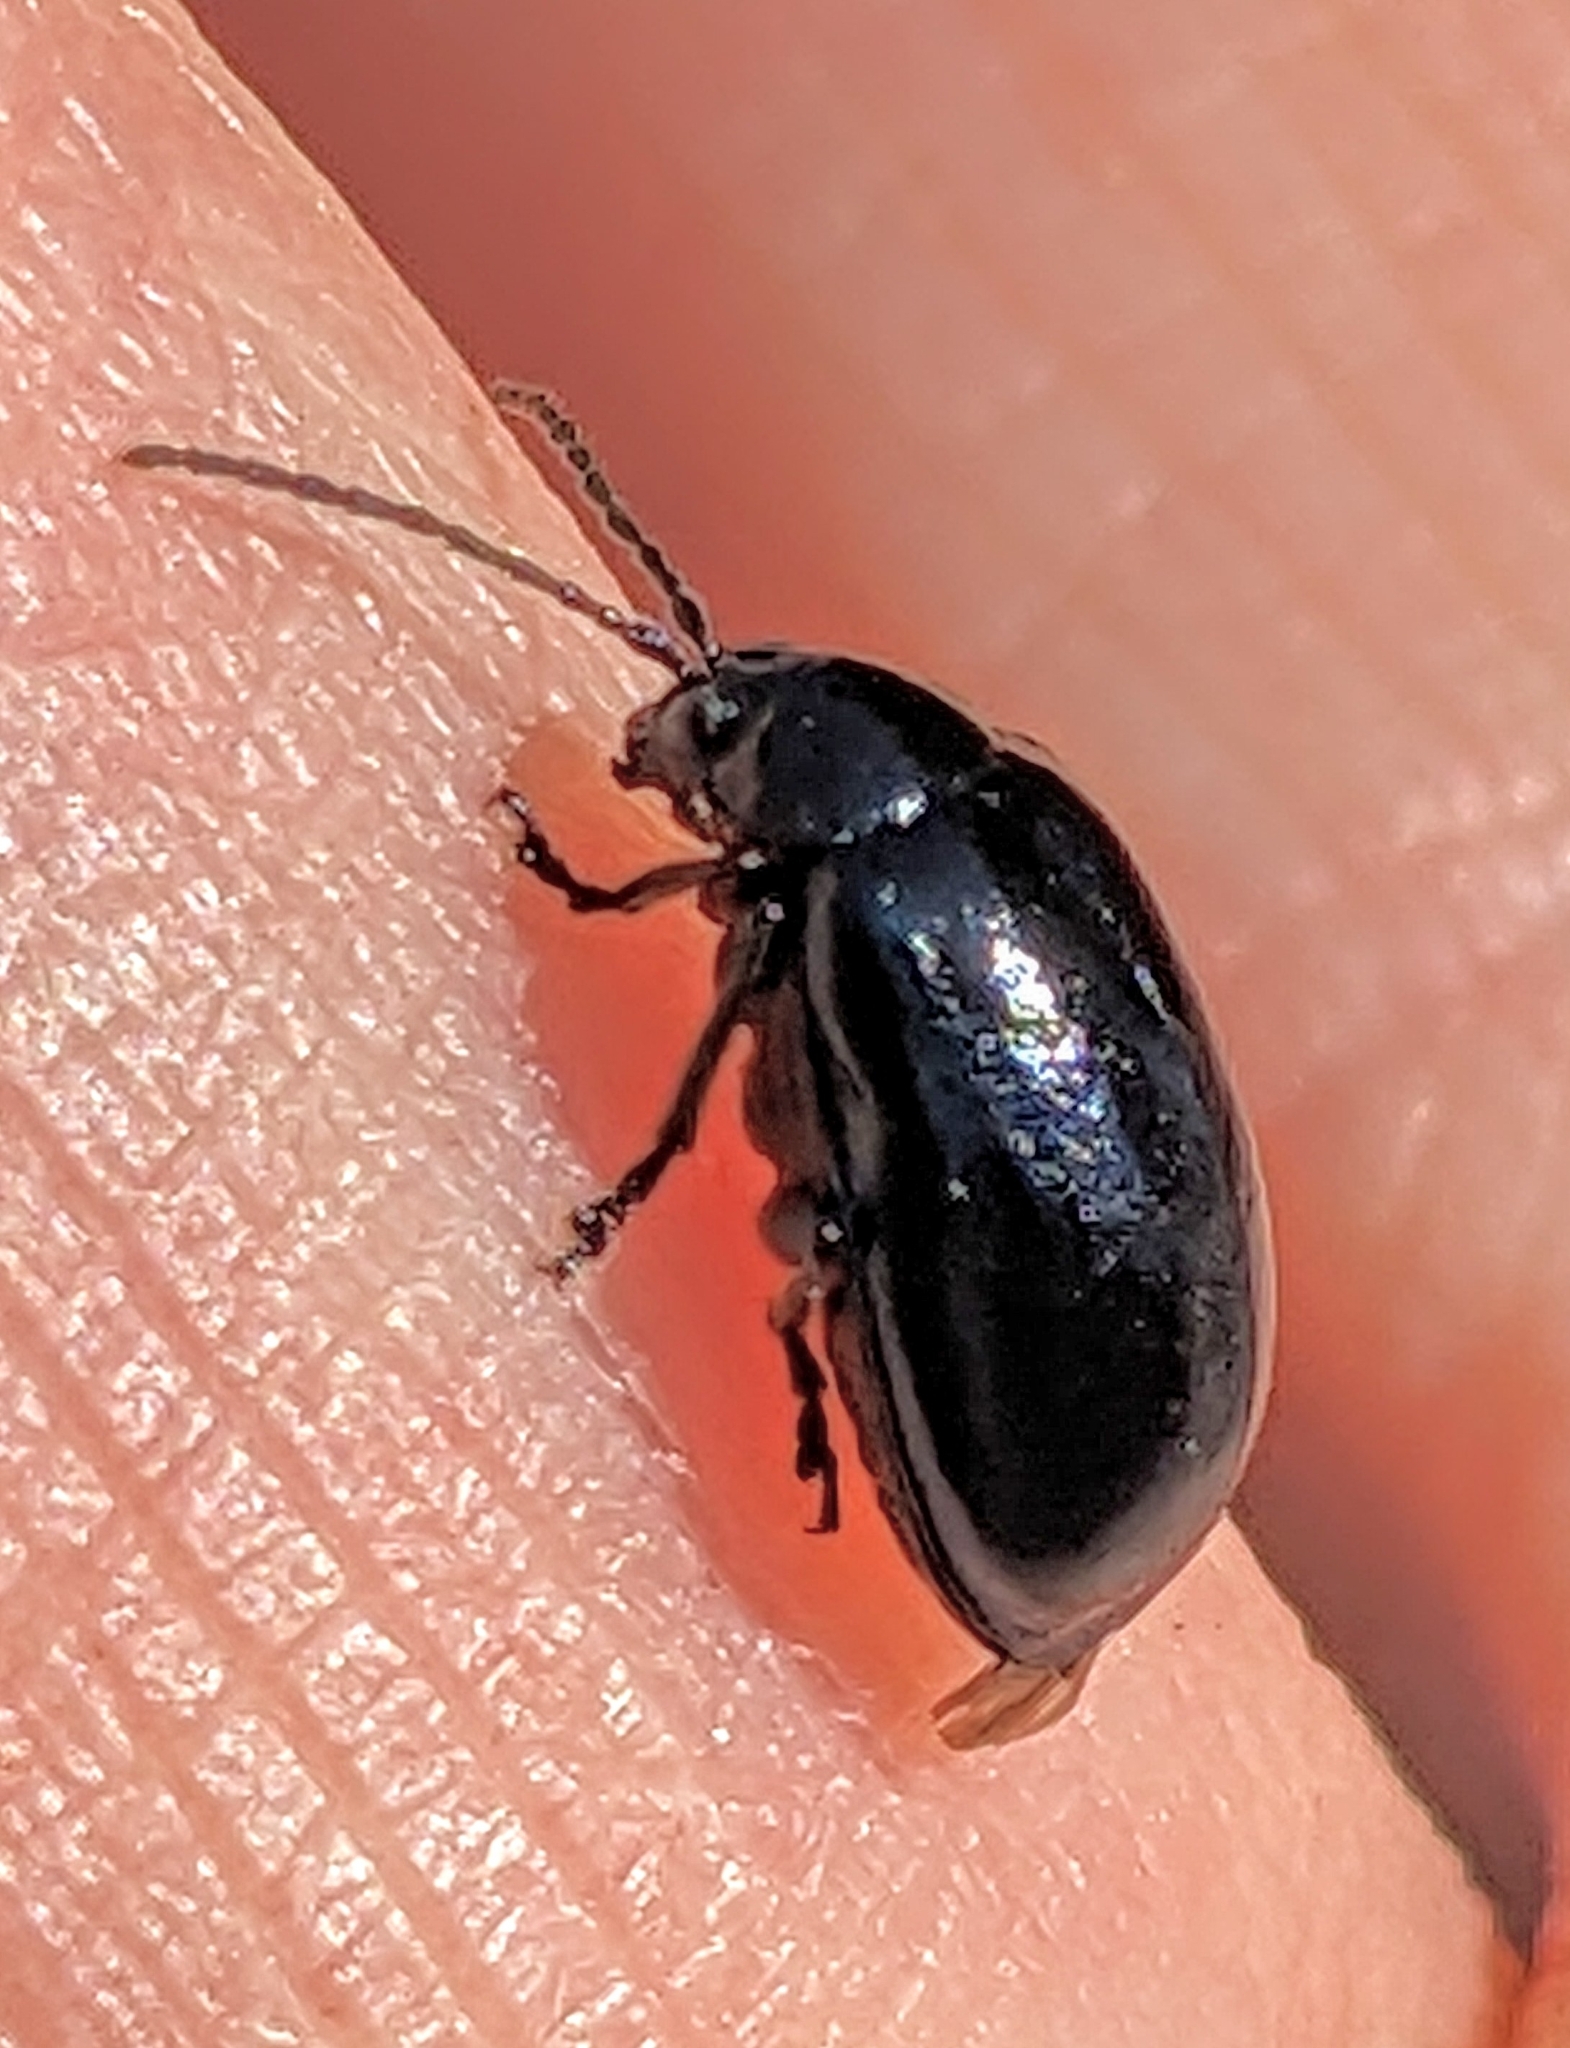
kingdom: Animalia
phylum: Arthropoda
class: Insecta
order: Coleoptera
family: Chrysomelidae
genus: Agelastica
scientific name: Agelastica alni
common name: Alder leaf beetle
